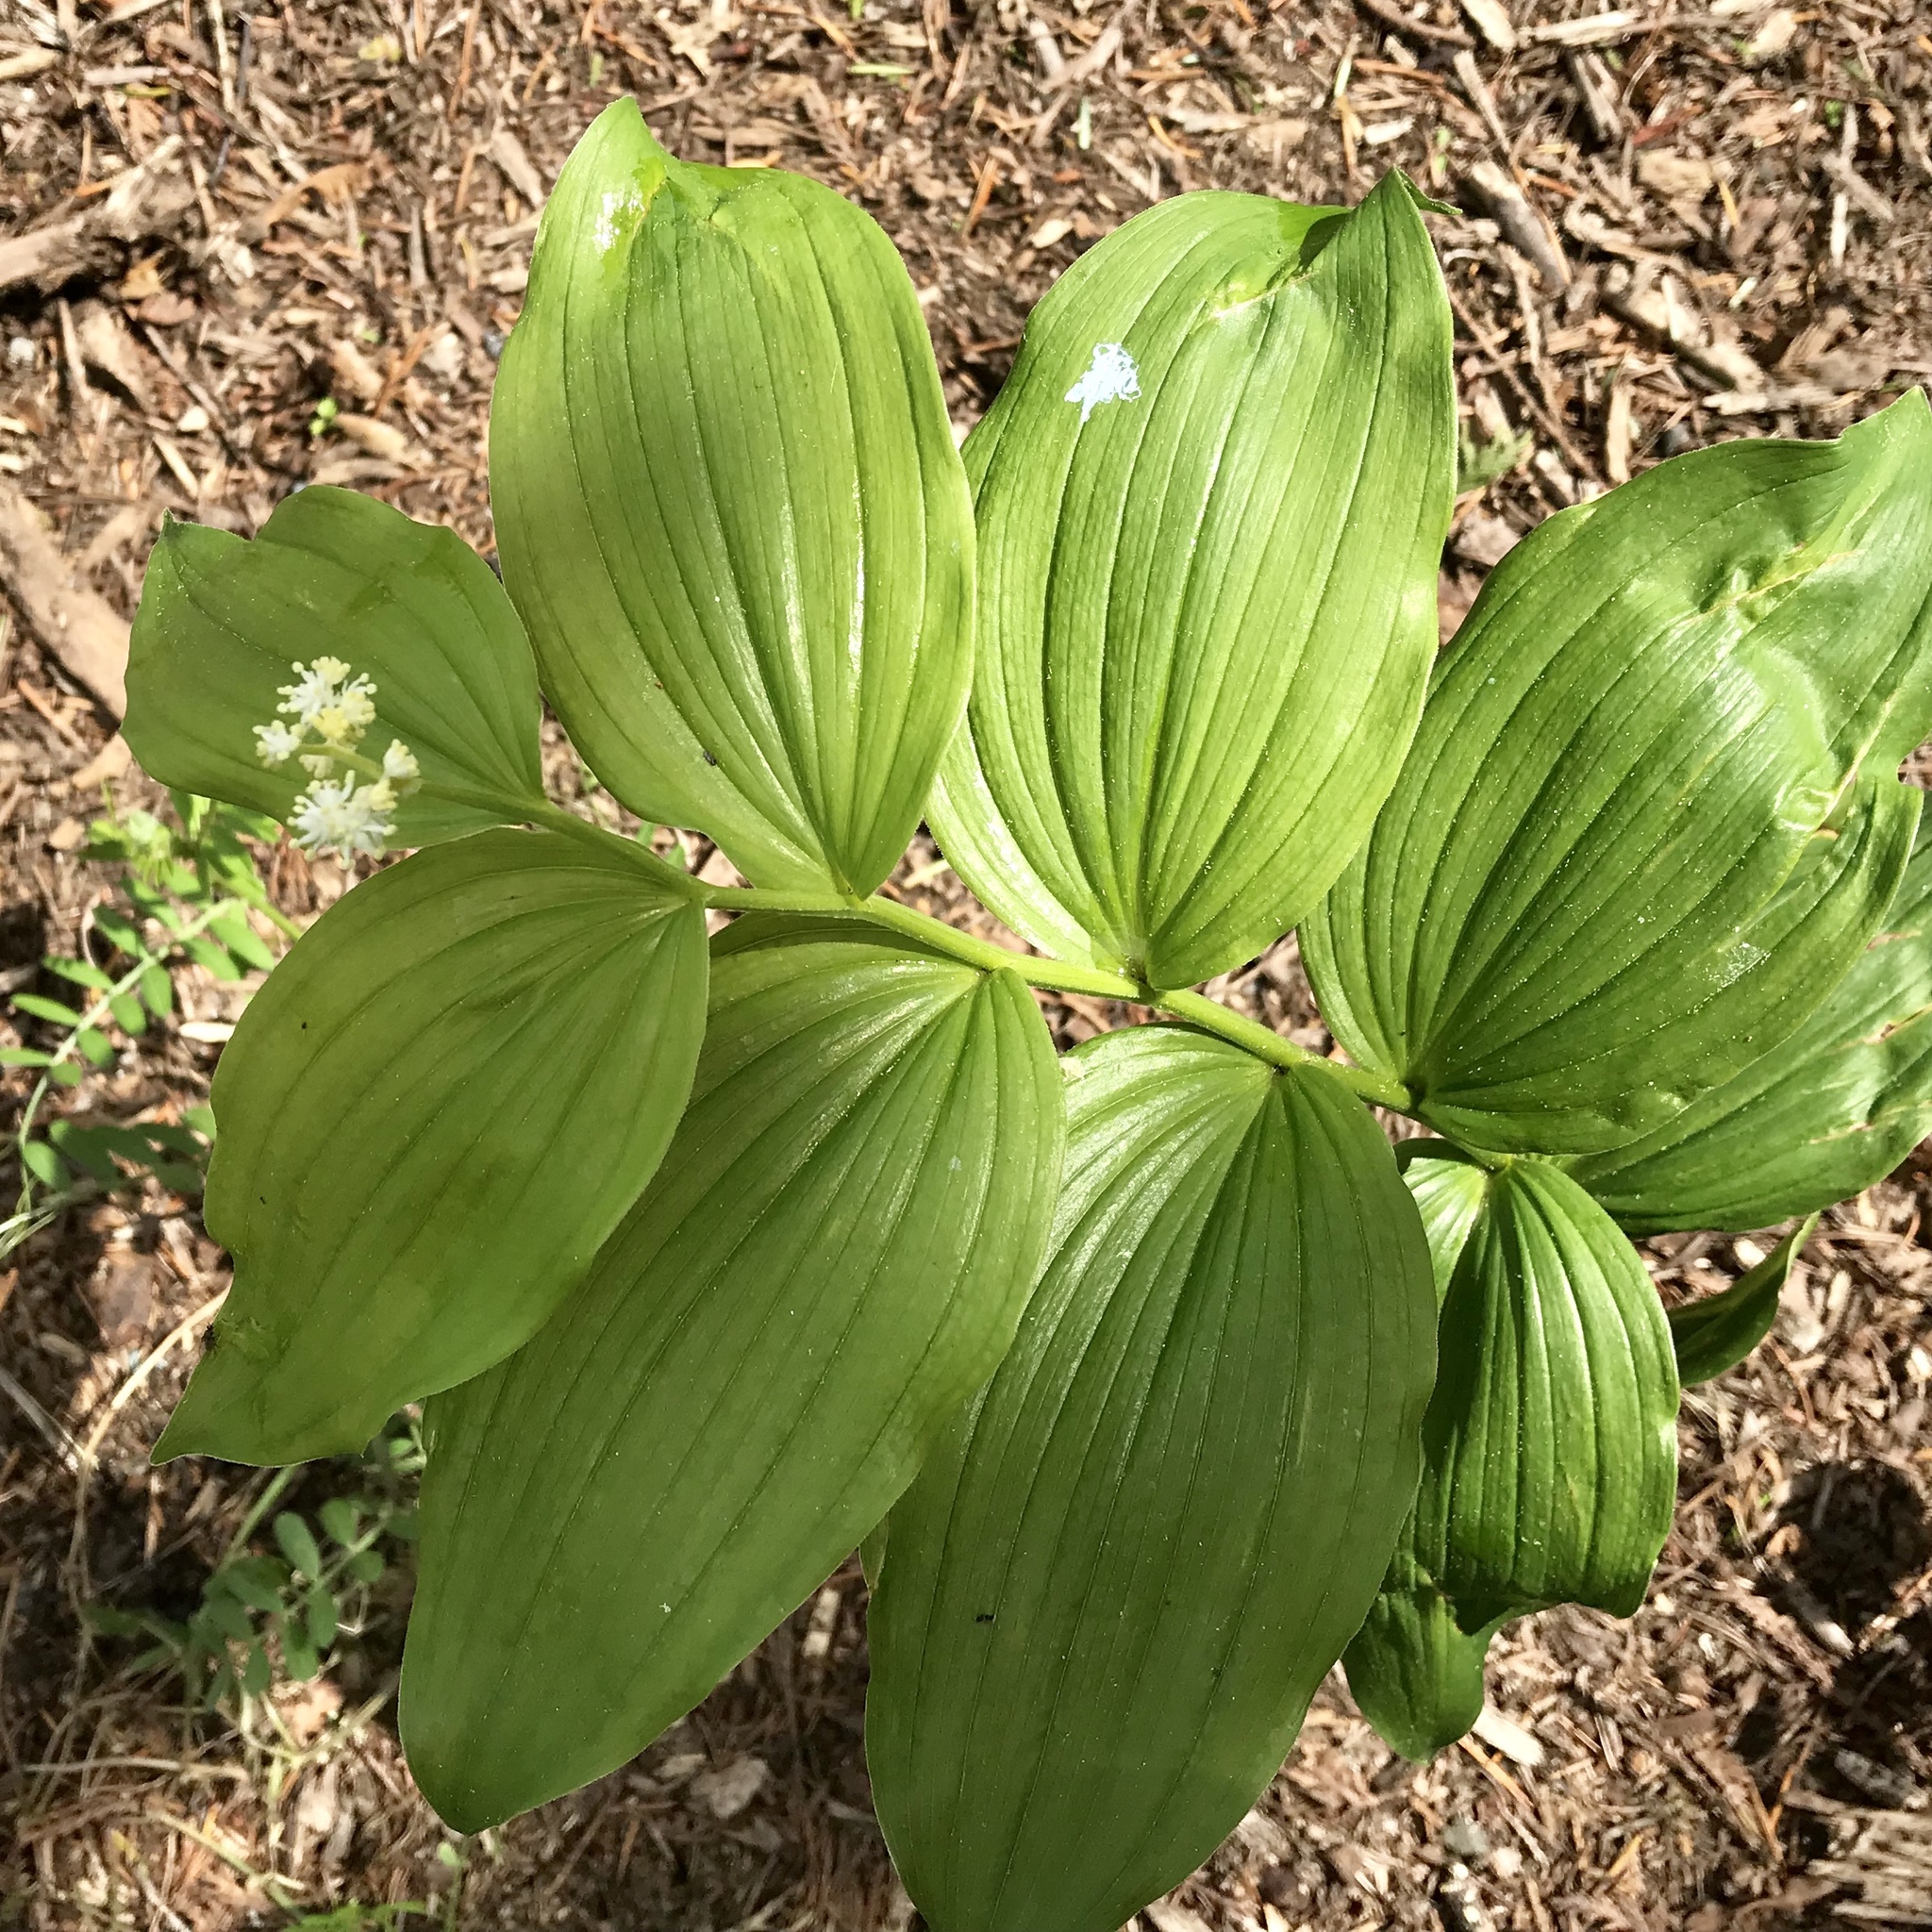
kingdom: Plantae
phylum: Tracheophyta
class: Liliopsida
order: Asparagales
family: Asparagaceae
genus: Maianthemum
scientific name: Maianthemum racemosum
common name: False spikenard
